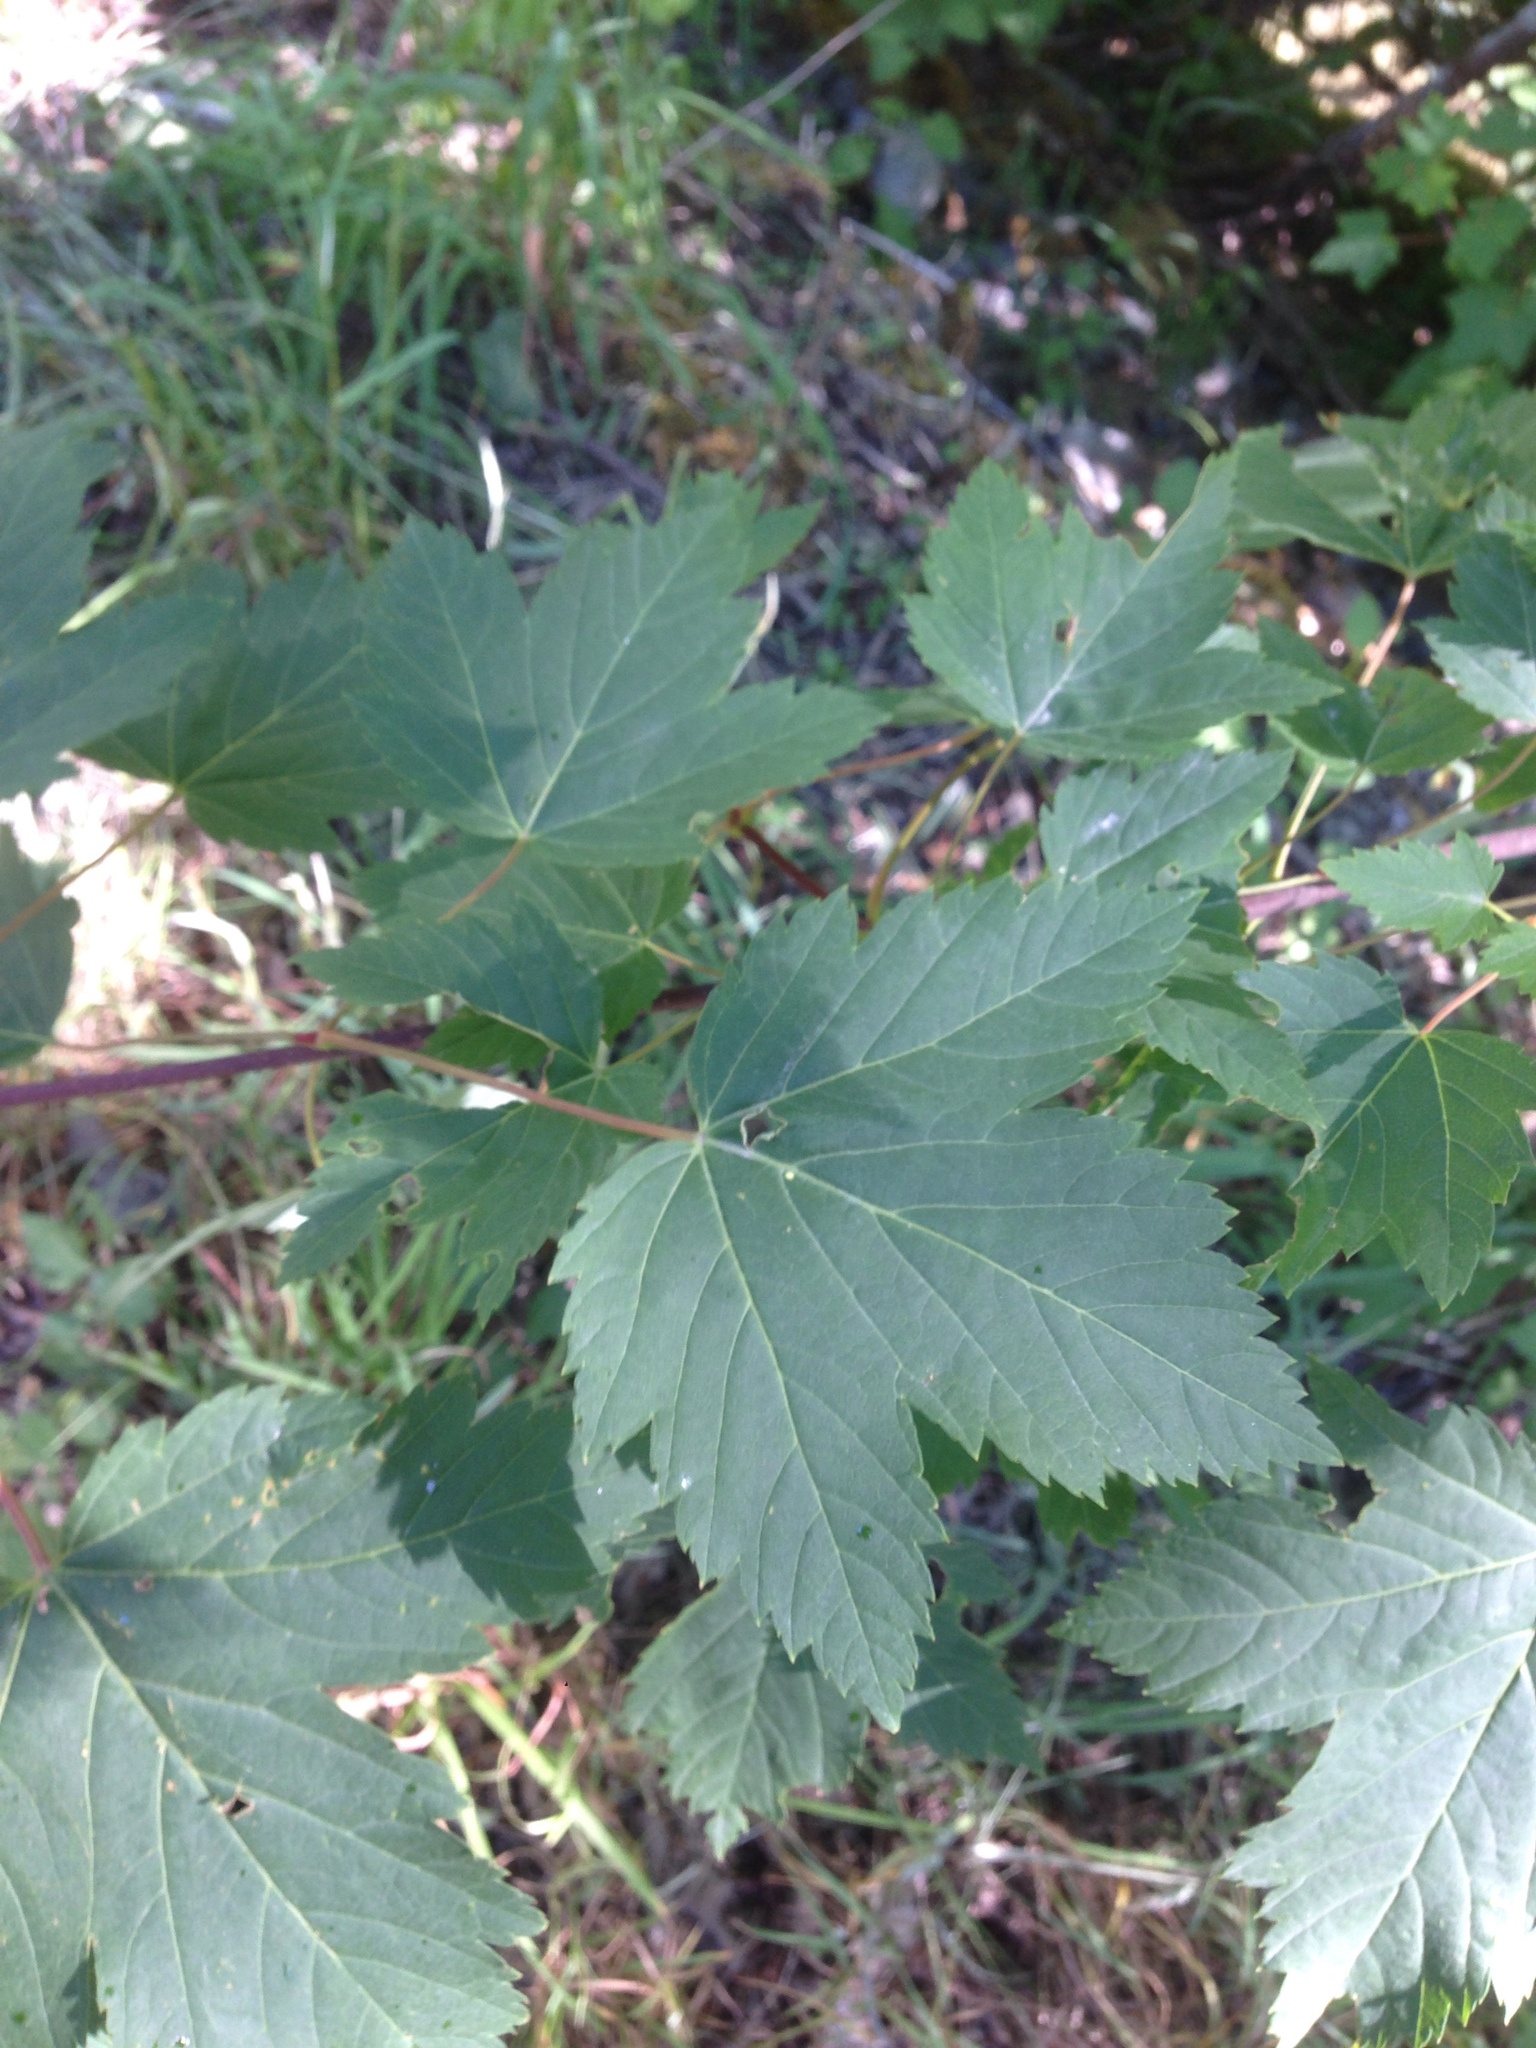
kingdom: Plantae
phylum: Tracheophyta
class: Magnoliopsida
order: Sapindales
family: Sapindaceae
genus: Acer
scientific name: Acer glabrum
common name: Rocky mountain maple
